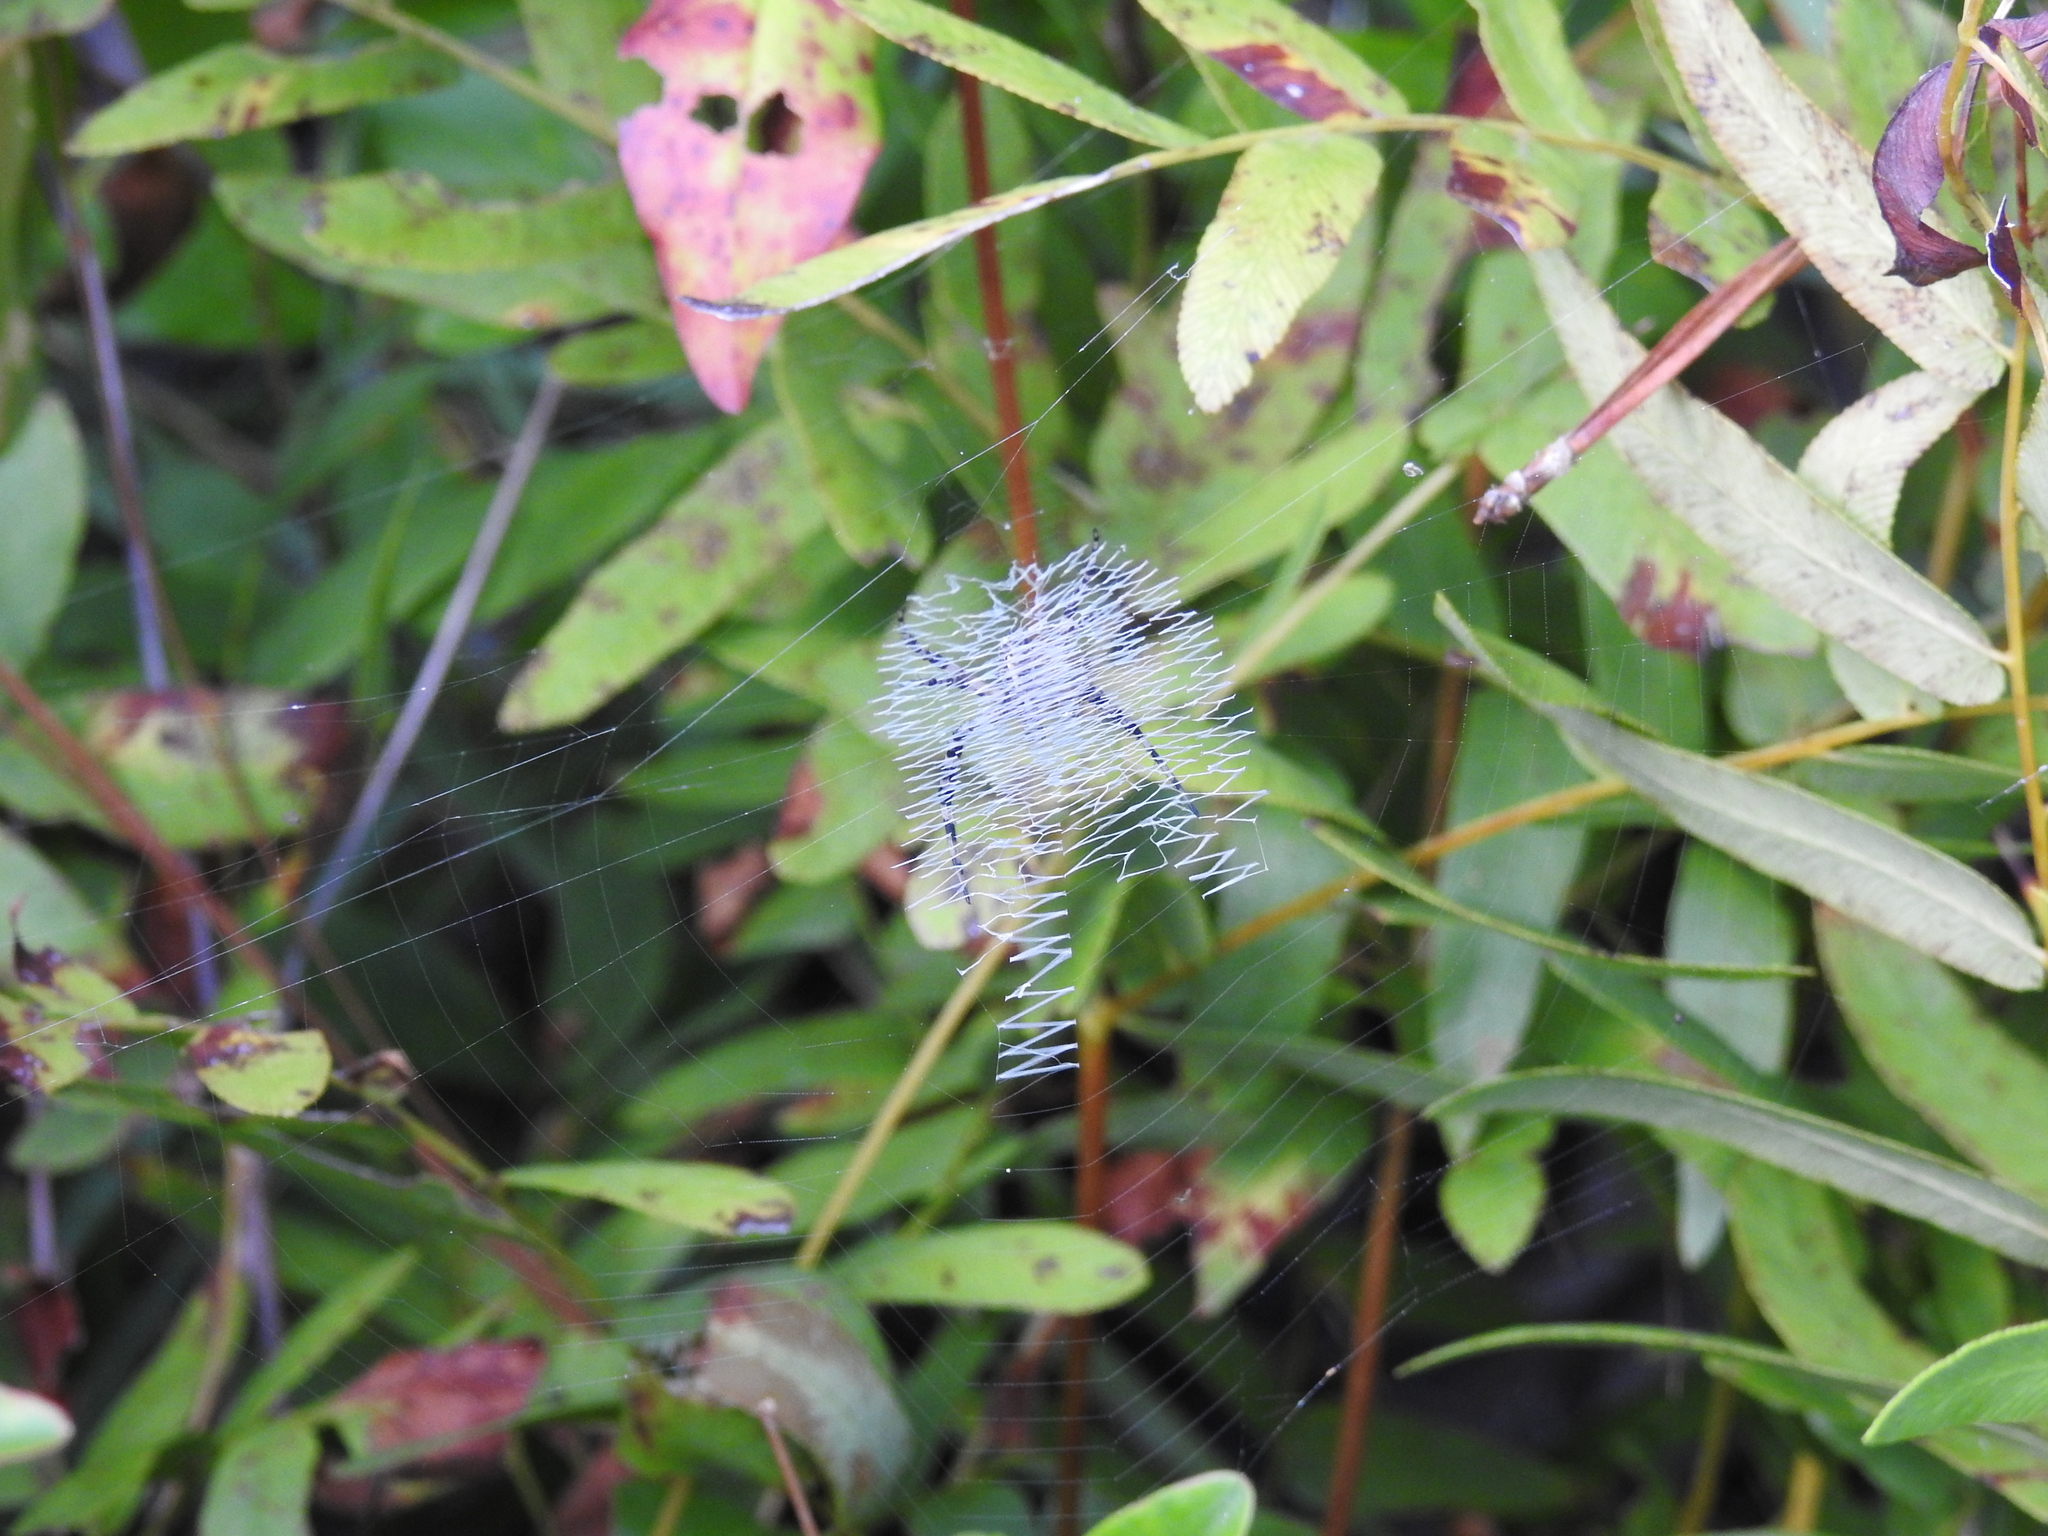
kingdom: Animalia
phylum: Arthropoda
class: Arachnida
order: Araneae
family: Araneidae
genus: Argiope
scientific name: Argiope aurantia
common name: Orb weavers
